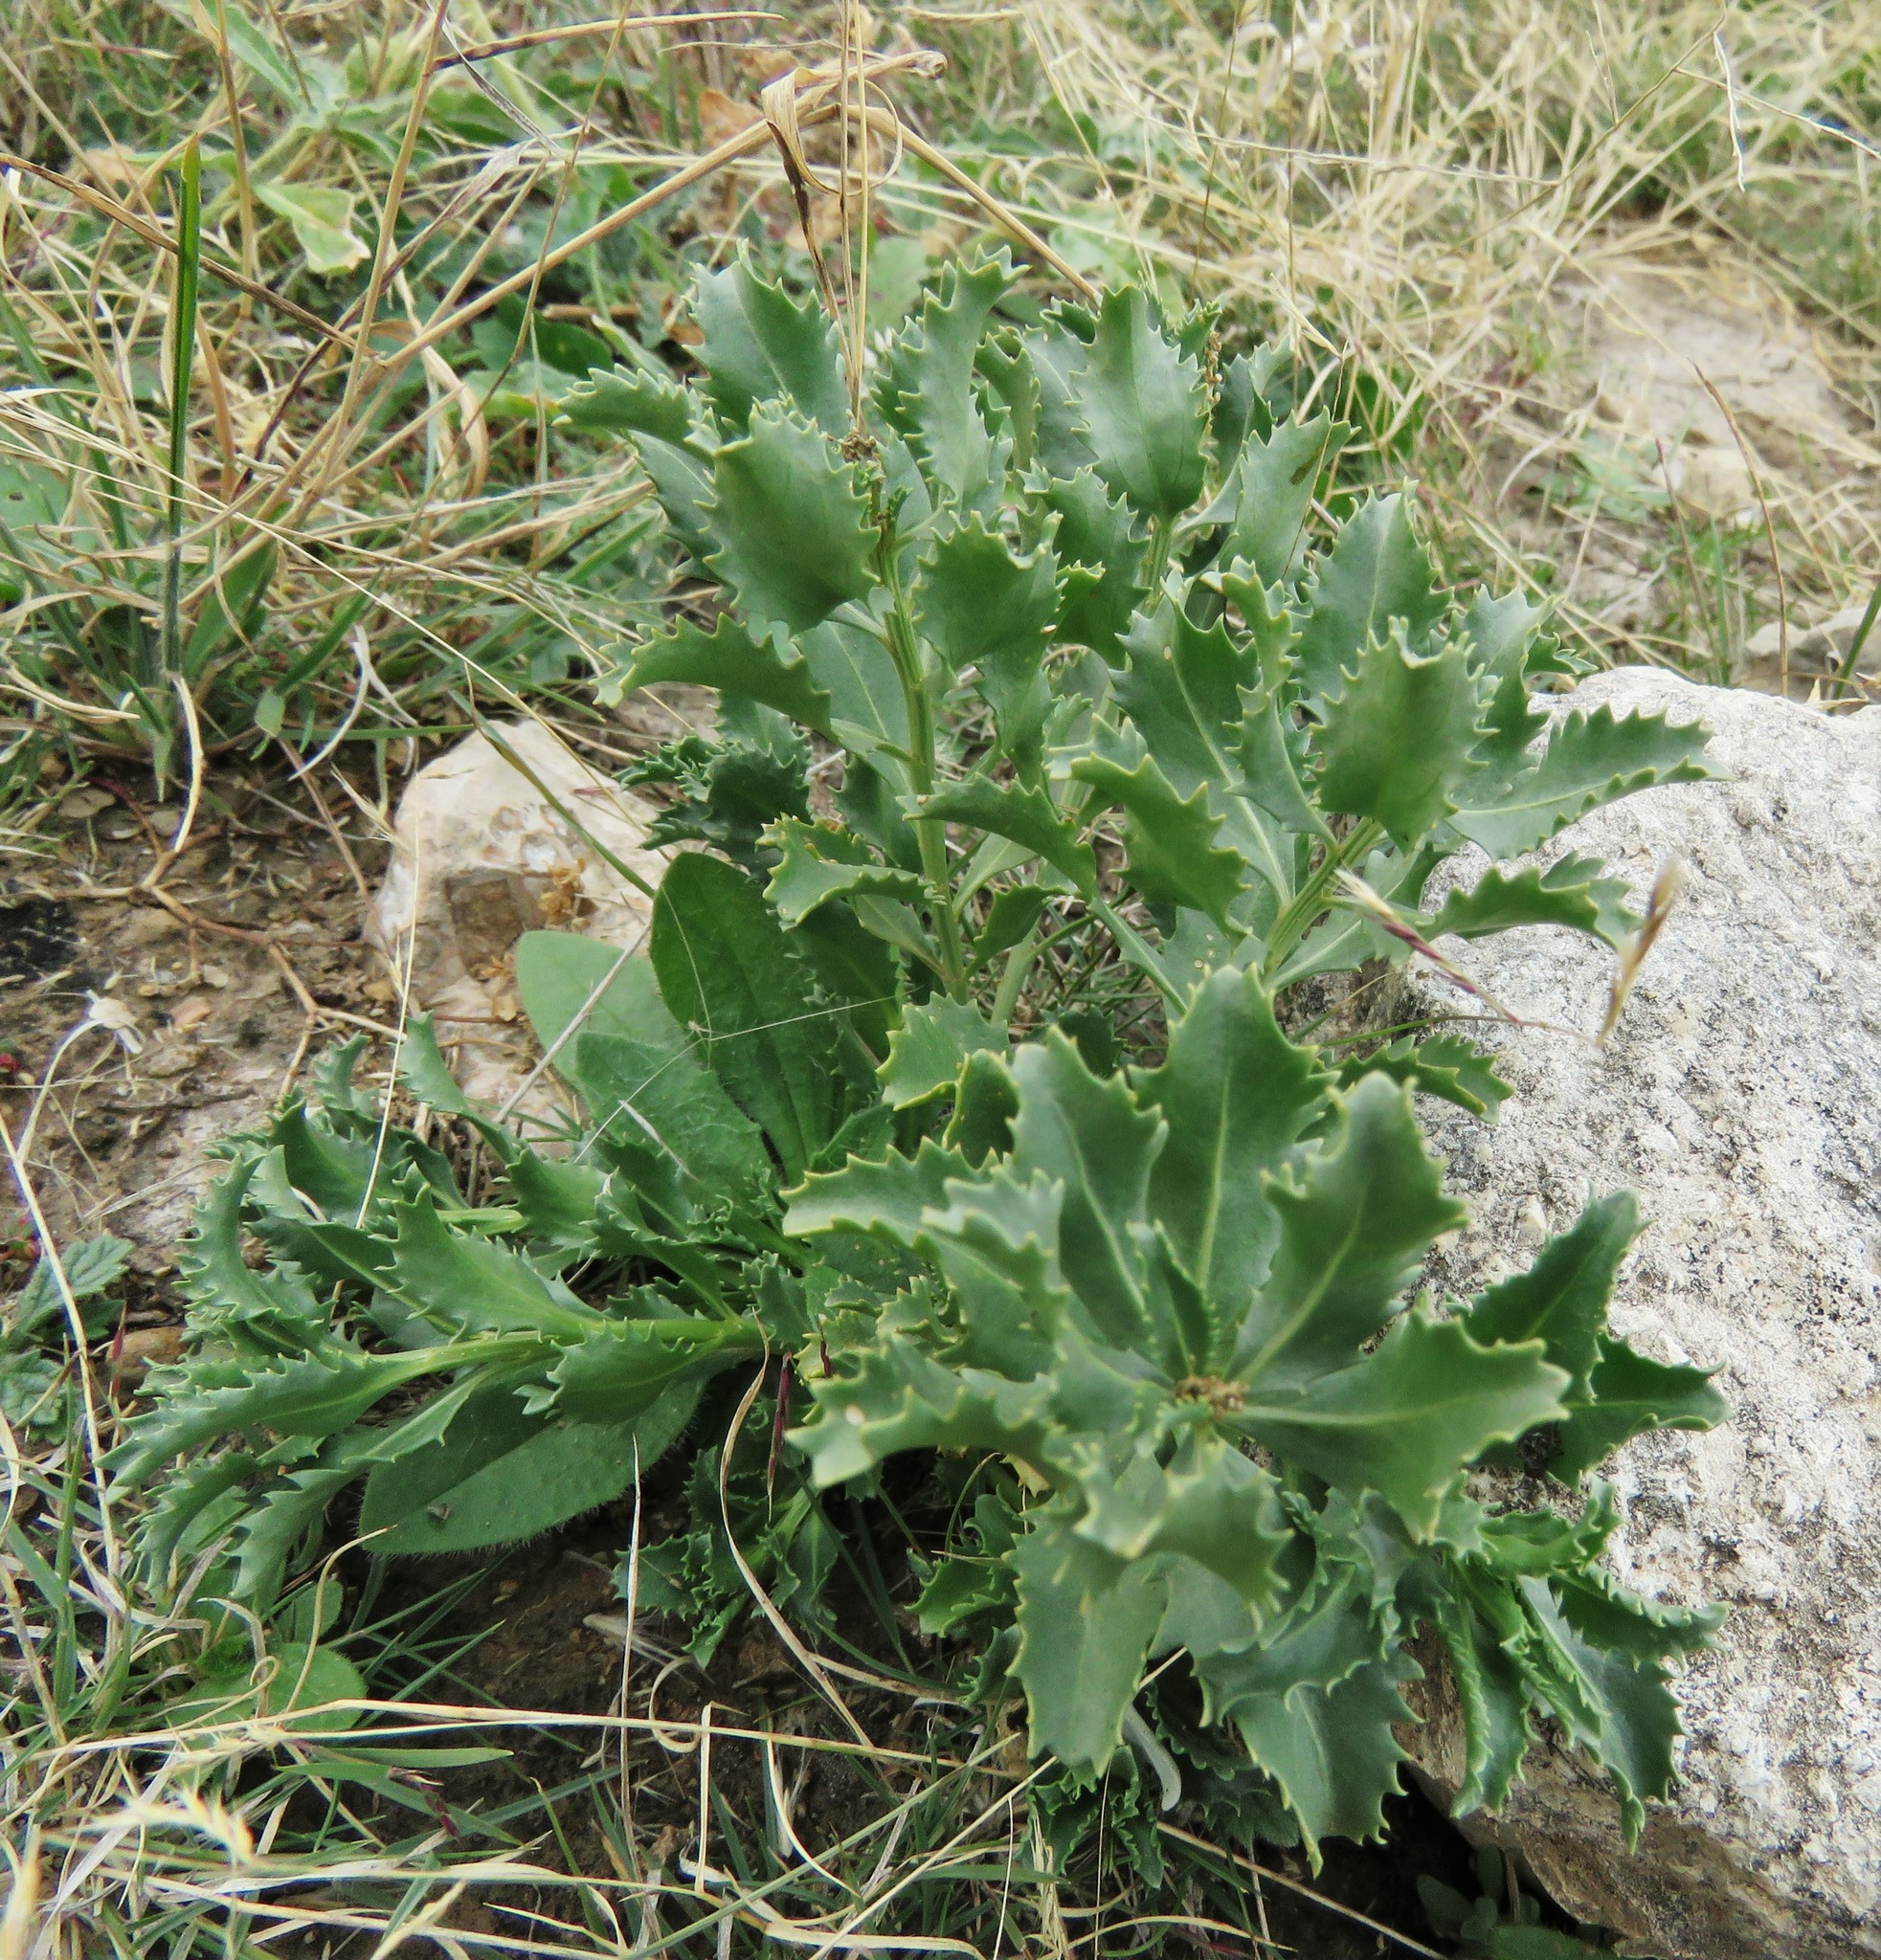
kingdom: Plantae
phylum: Tracheophyta
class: Magnoliopsida
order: Malpighiales
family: Euphorbiaceae
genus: Stillingia
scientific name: Stillingia treculiana
